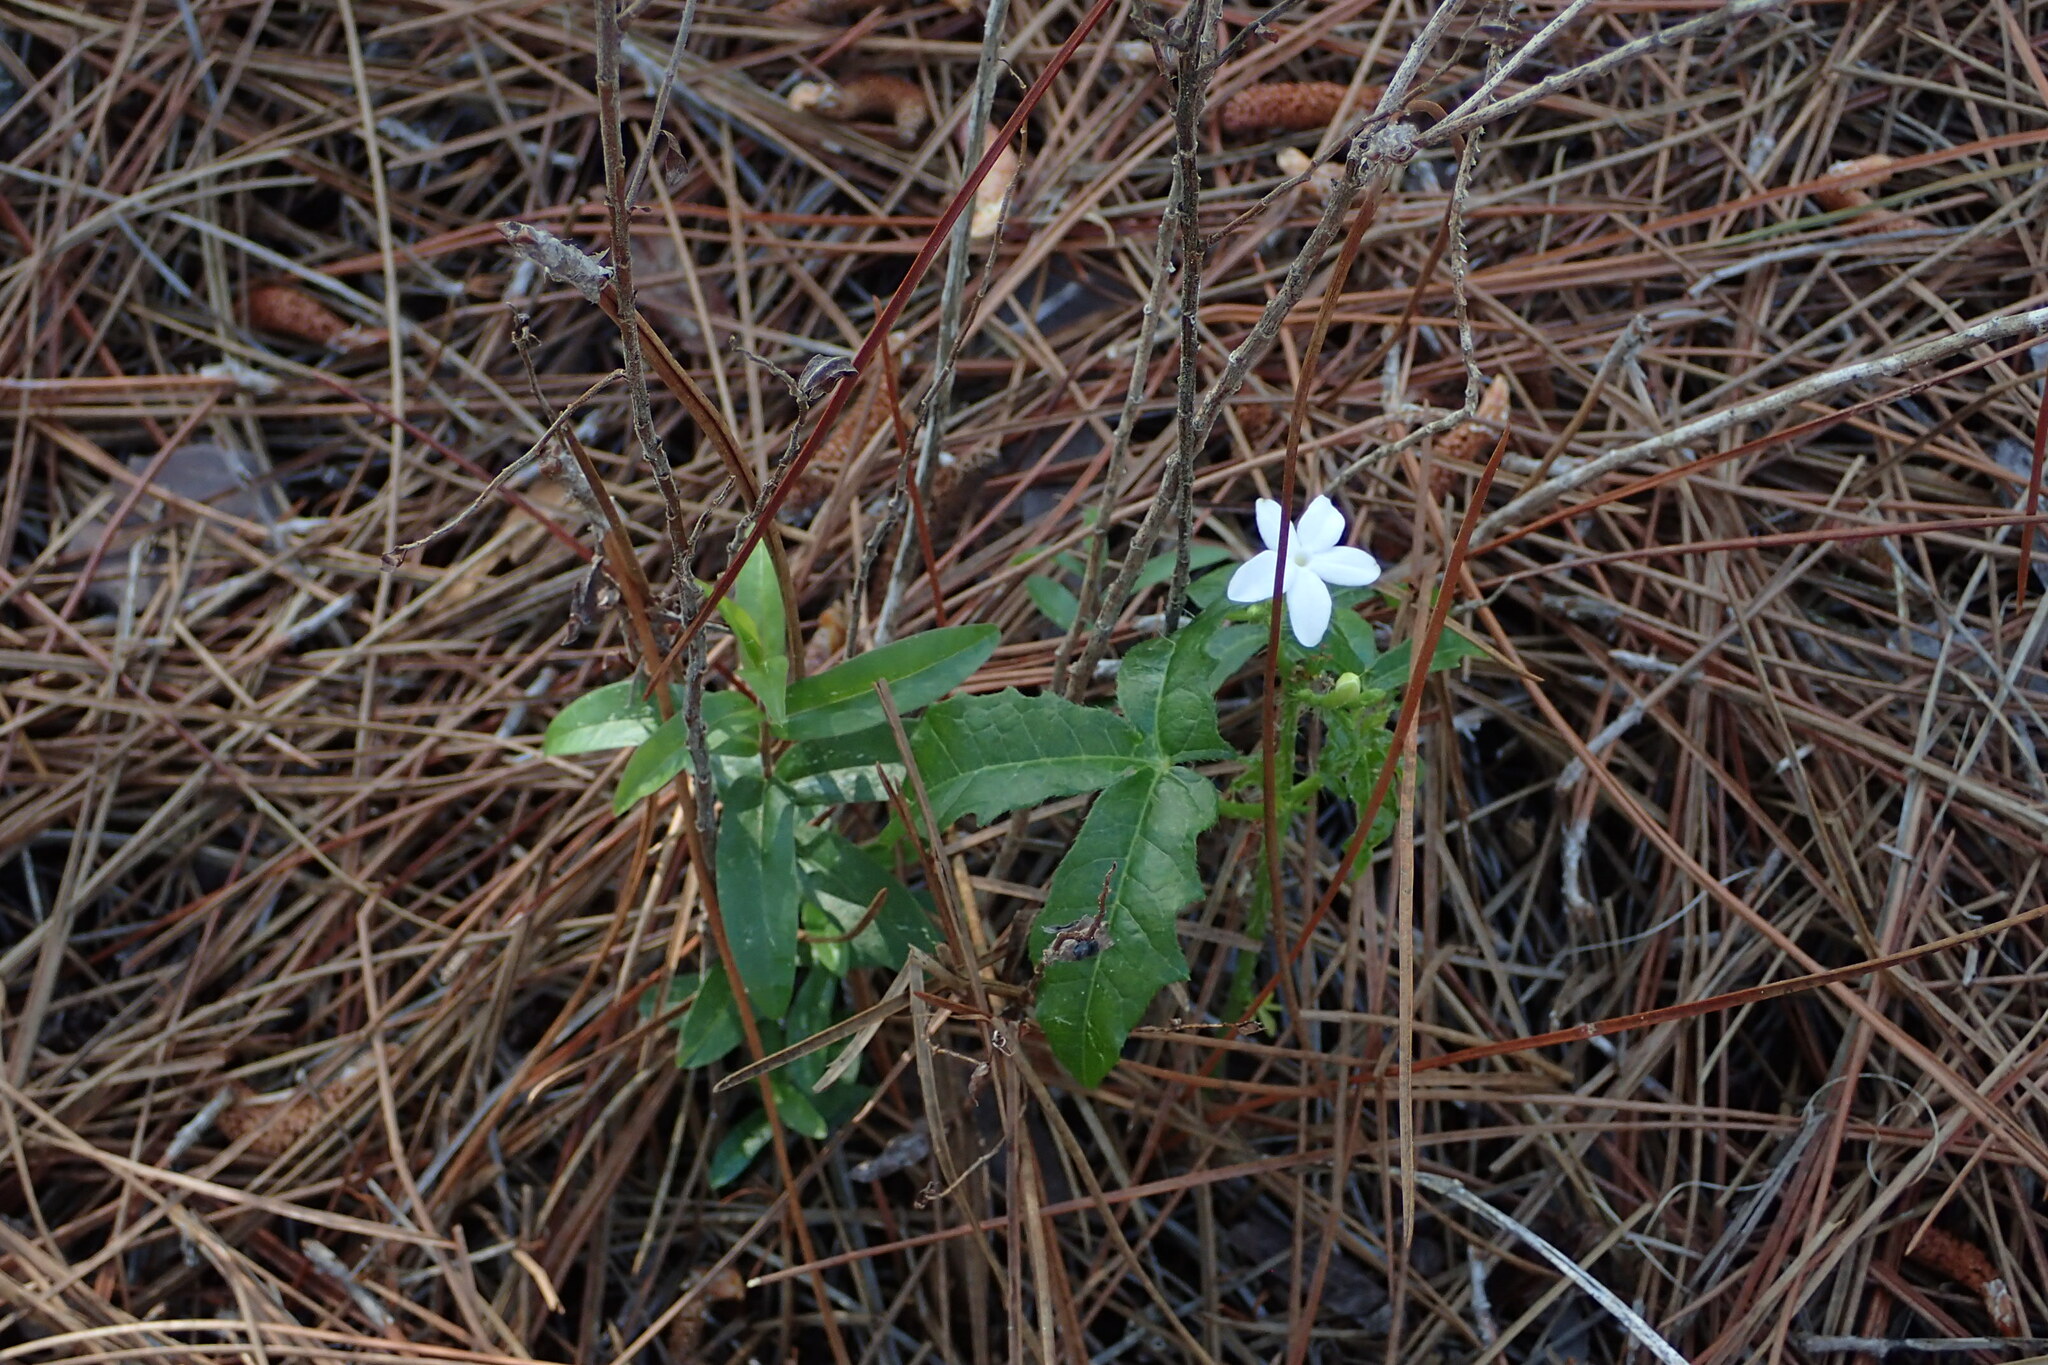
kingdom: Plantae
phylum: Tracheophyta
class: Magnoliopsida
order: Malpighiales
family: Euphorbiaceae
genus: Cnidoscolus
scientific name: Cnidoscolus stimulosus
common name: Bull-nettle
